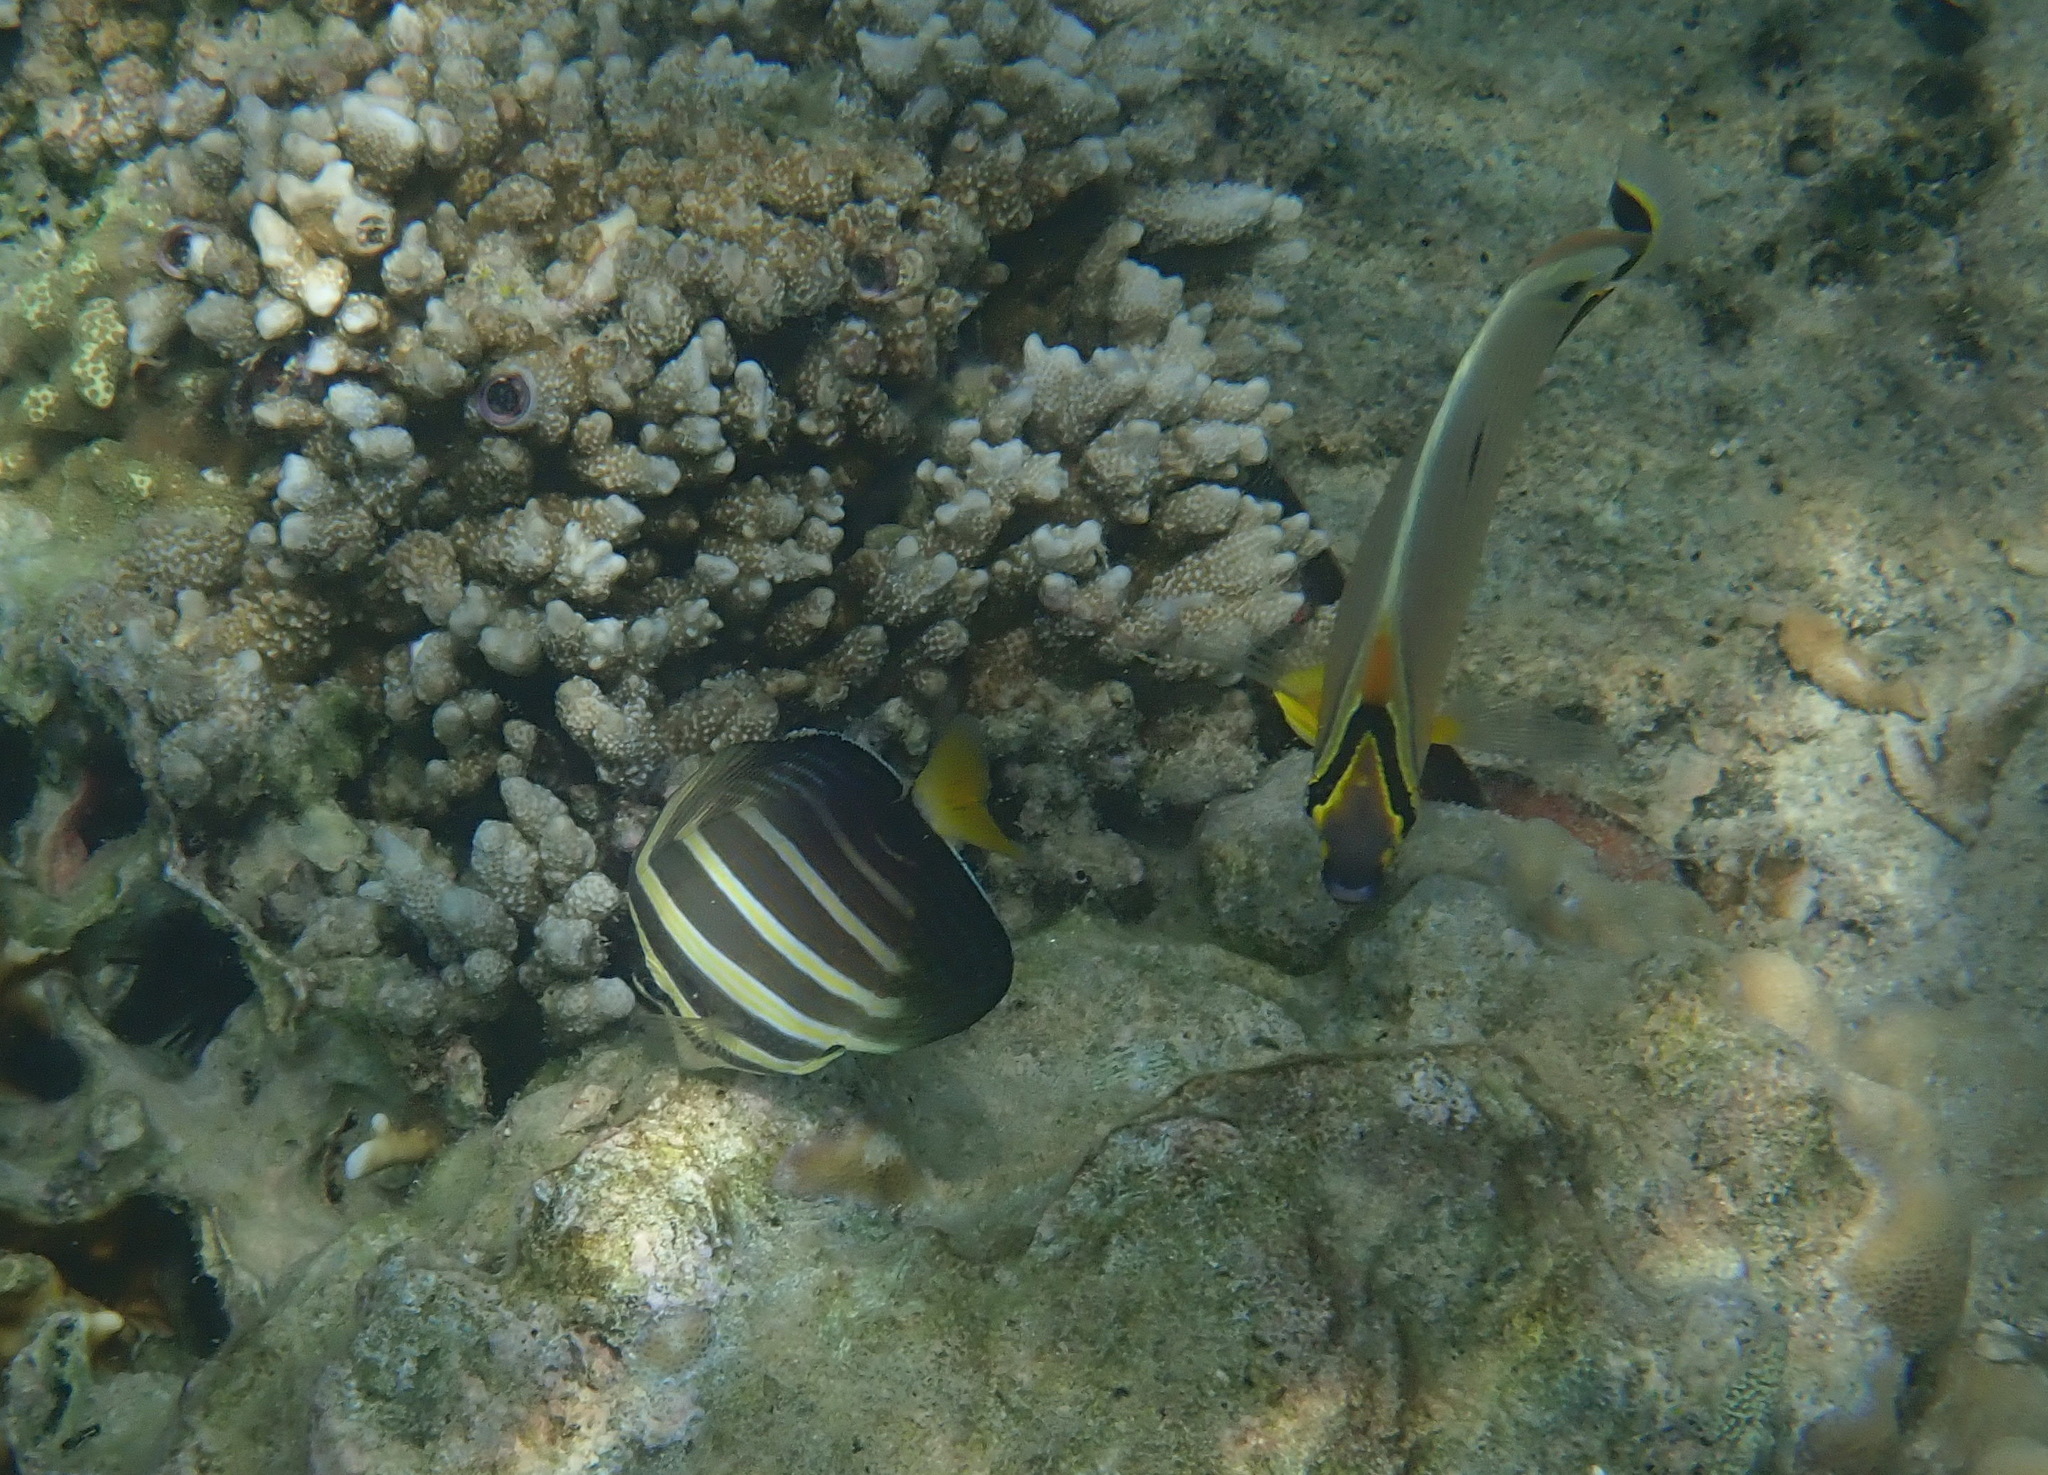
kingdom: Animalia
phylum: Chordata
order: Perciformes
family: Acanthuridae
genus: Zebrasoma
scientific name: Zebrasoma veliferum
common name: Sailfin surgeonfish
